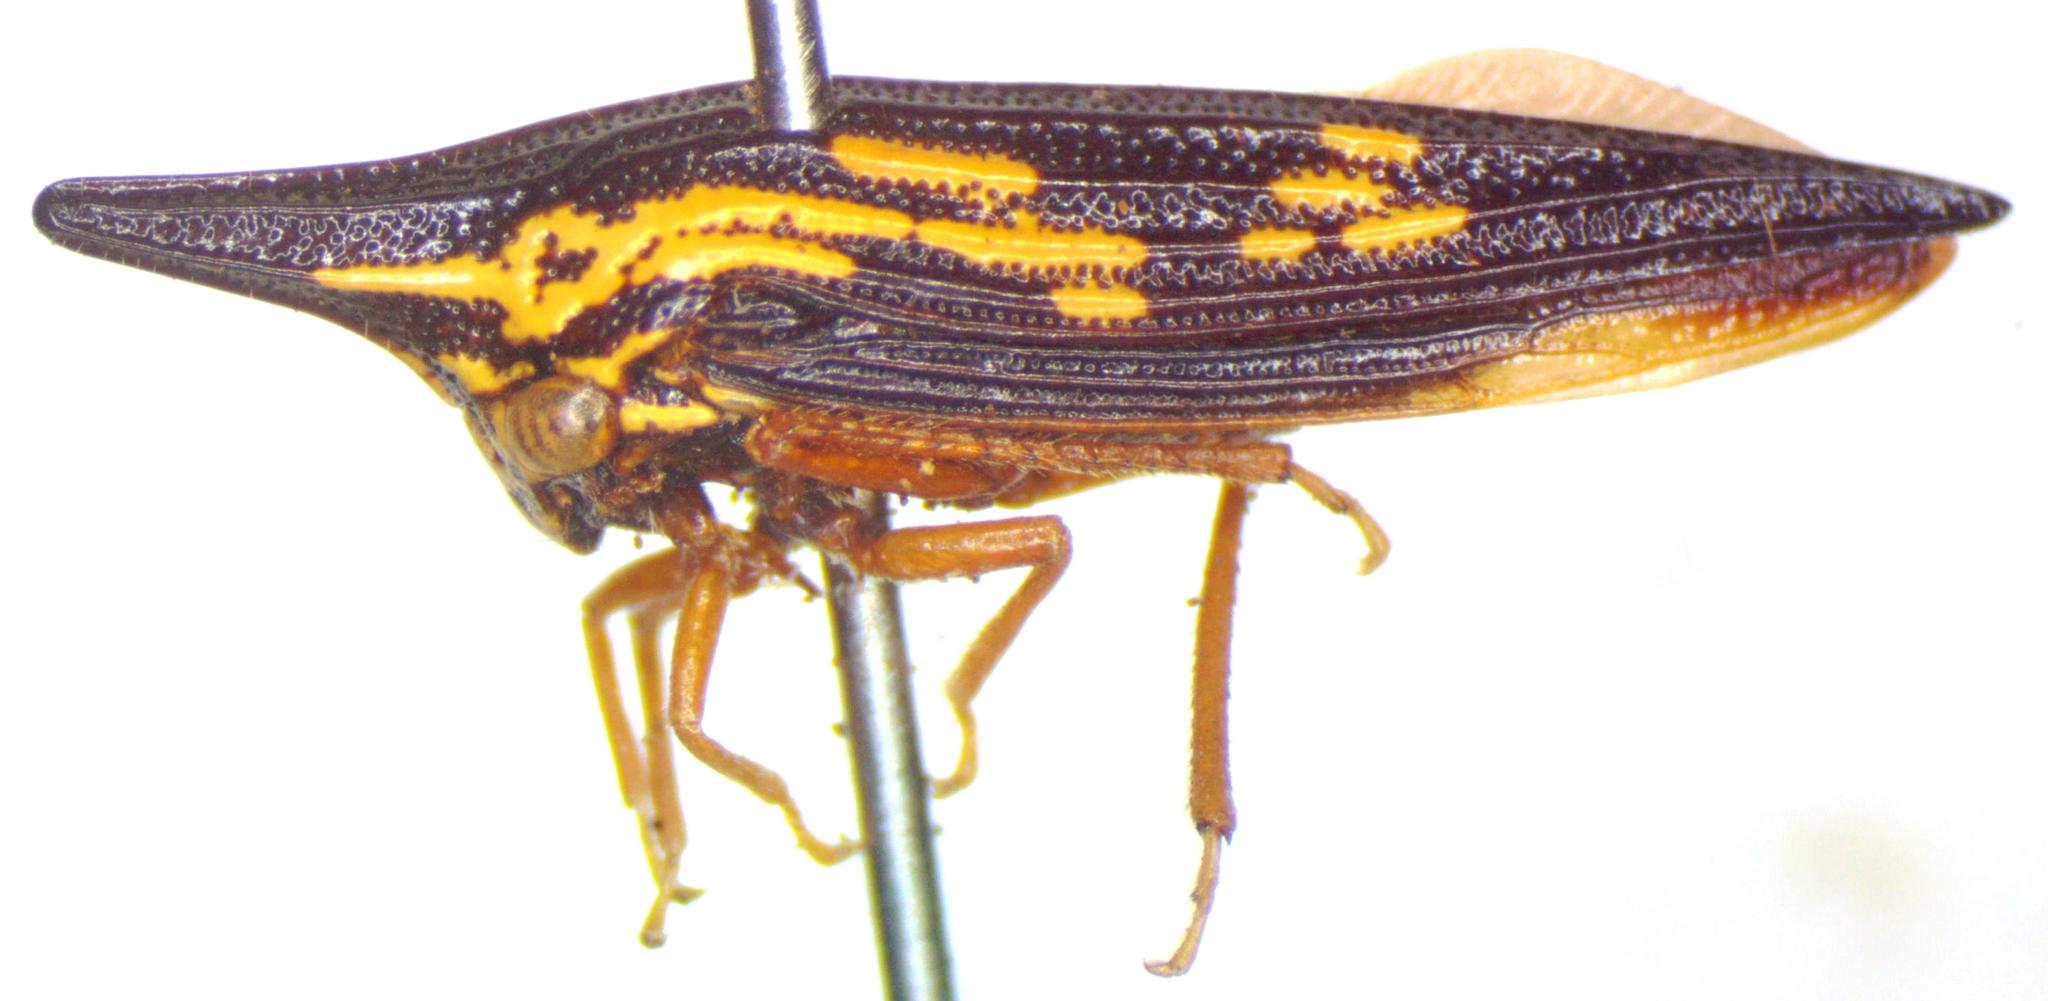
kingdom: Animalia
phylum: Arthropoda
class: Insecta
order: Hemiptera
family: Membracidae
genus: Polyglypta
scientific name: Polyglypta costata
